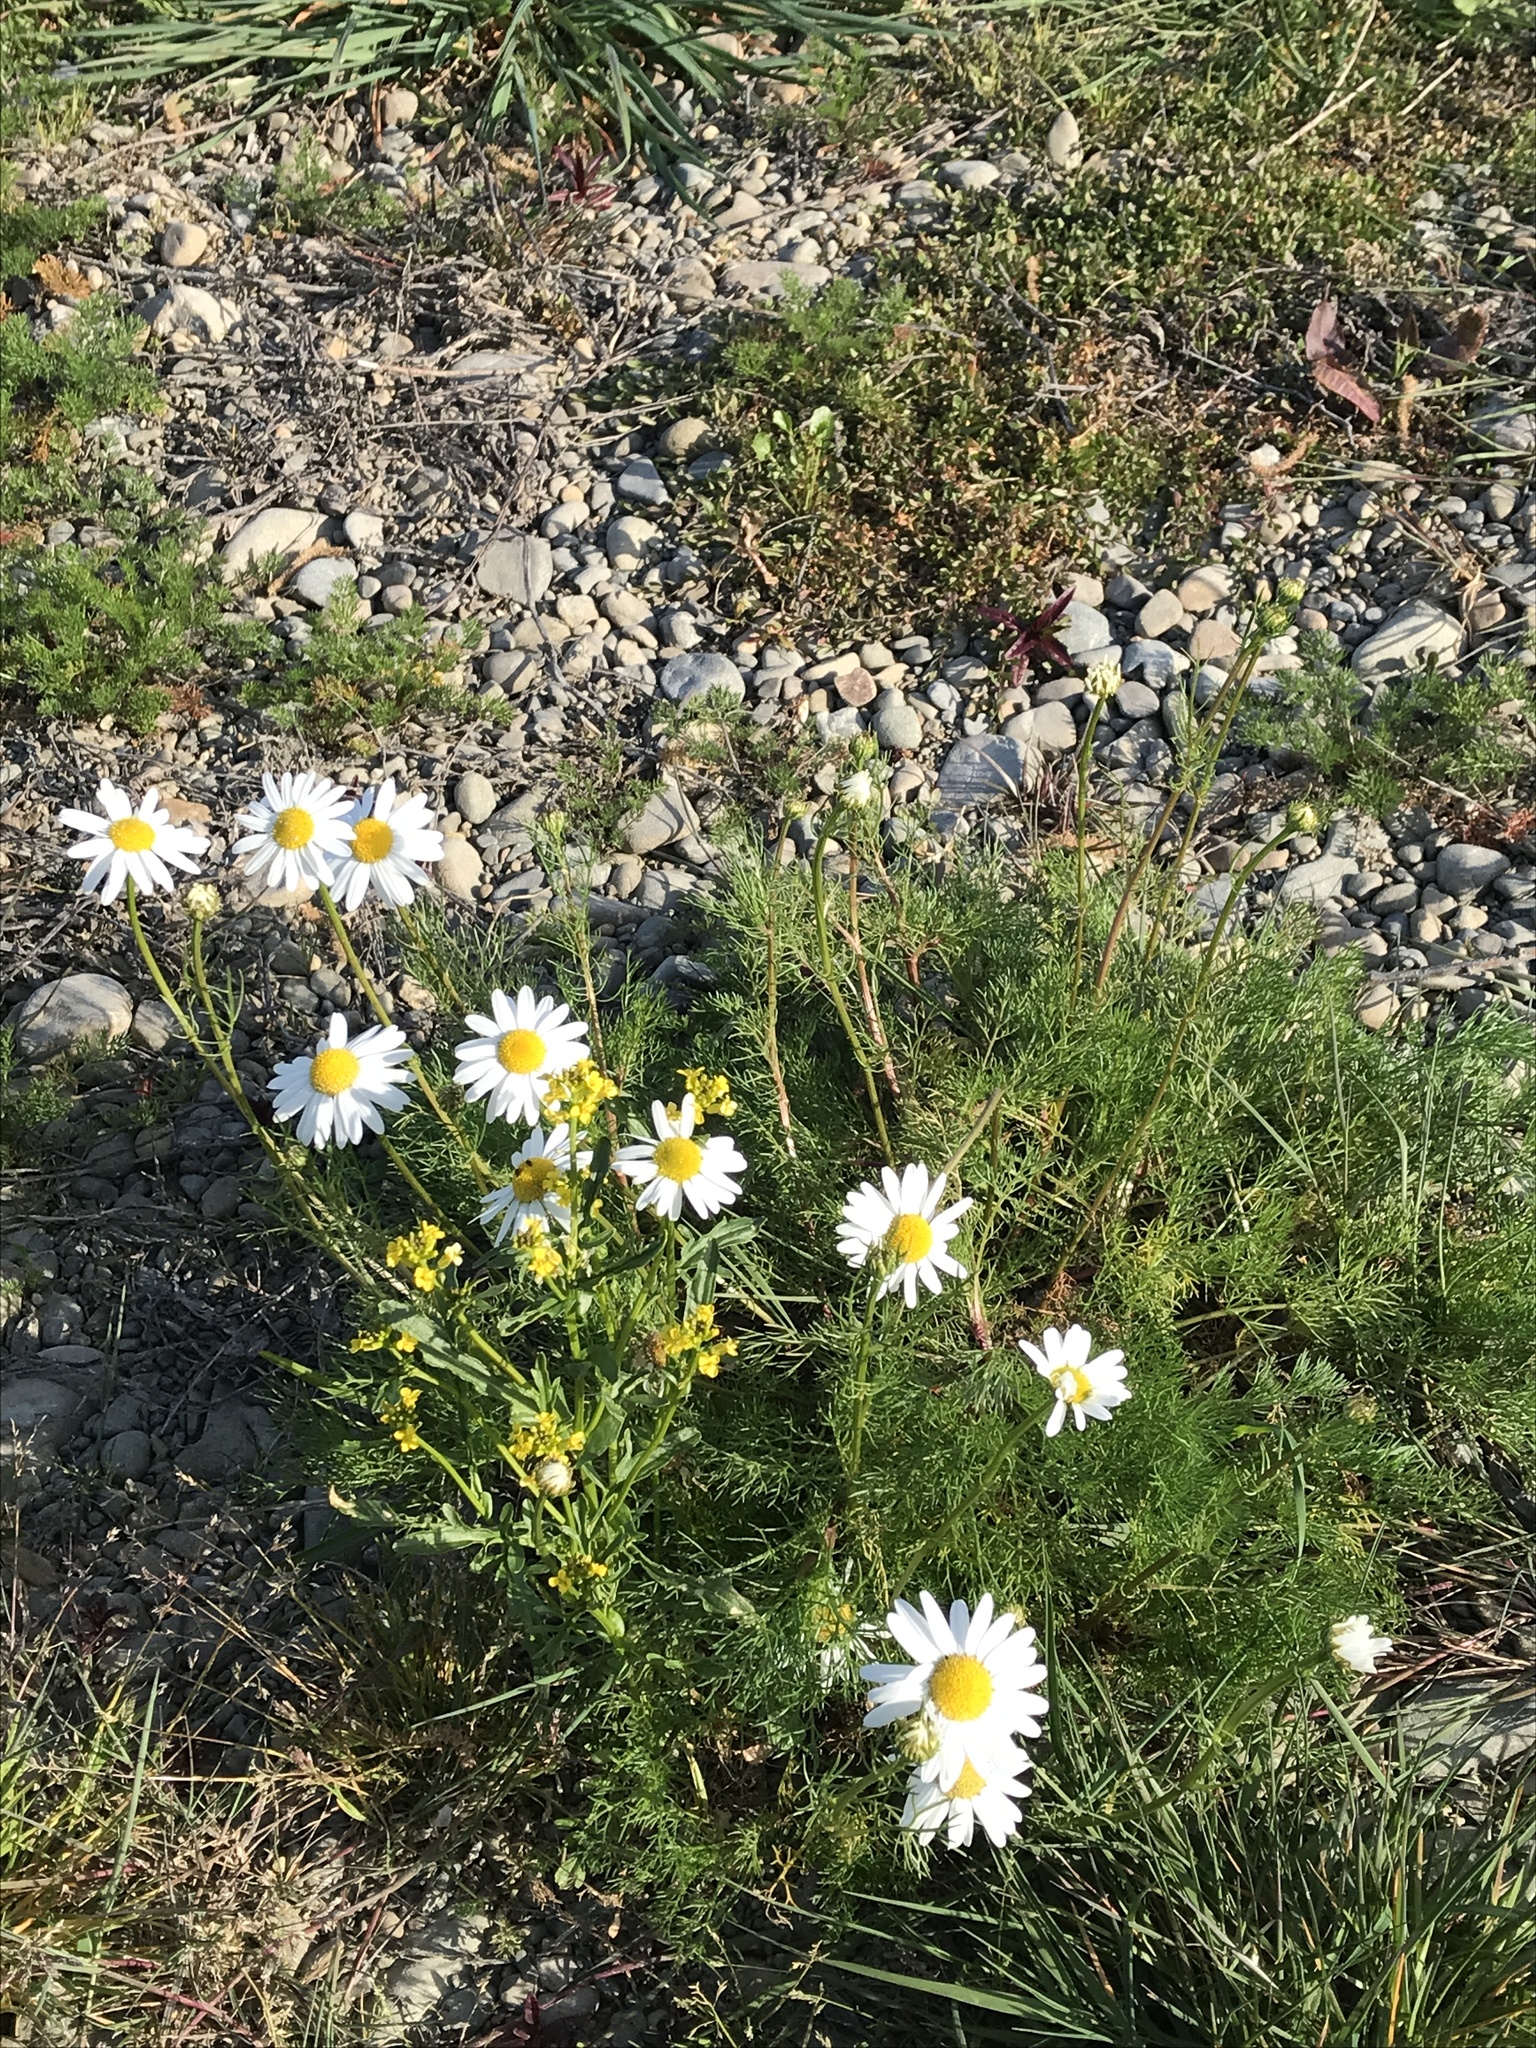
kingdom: Plantae
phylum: Tracheophyta
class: Magnoliopsida
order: Asterales
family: Asteraceae
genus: Tripleurospermum
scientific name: Tripleurospermum inodorum
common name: Scentless mayweed
